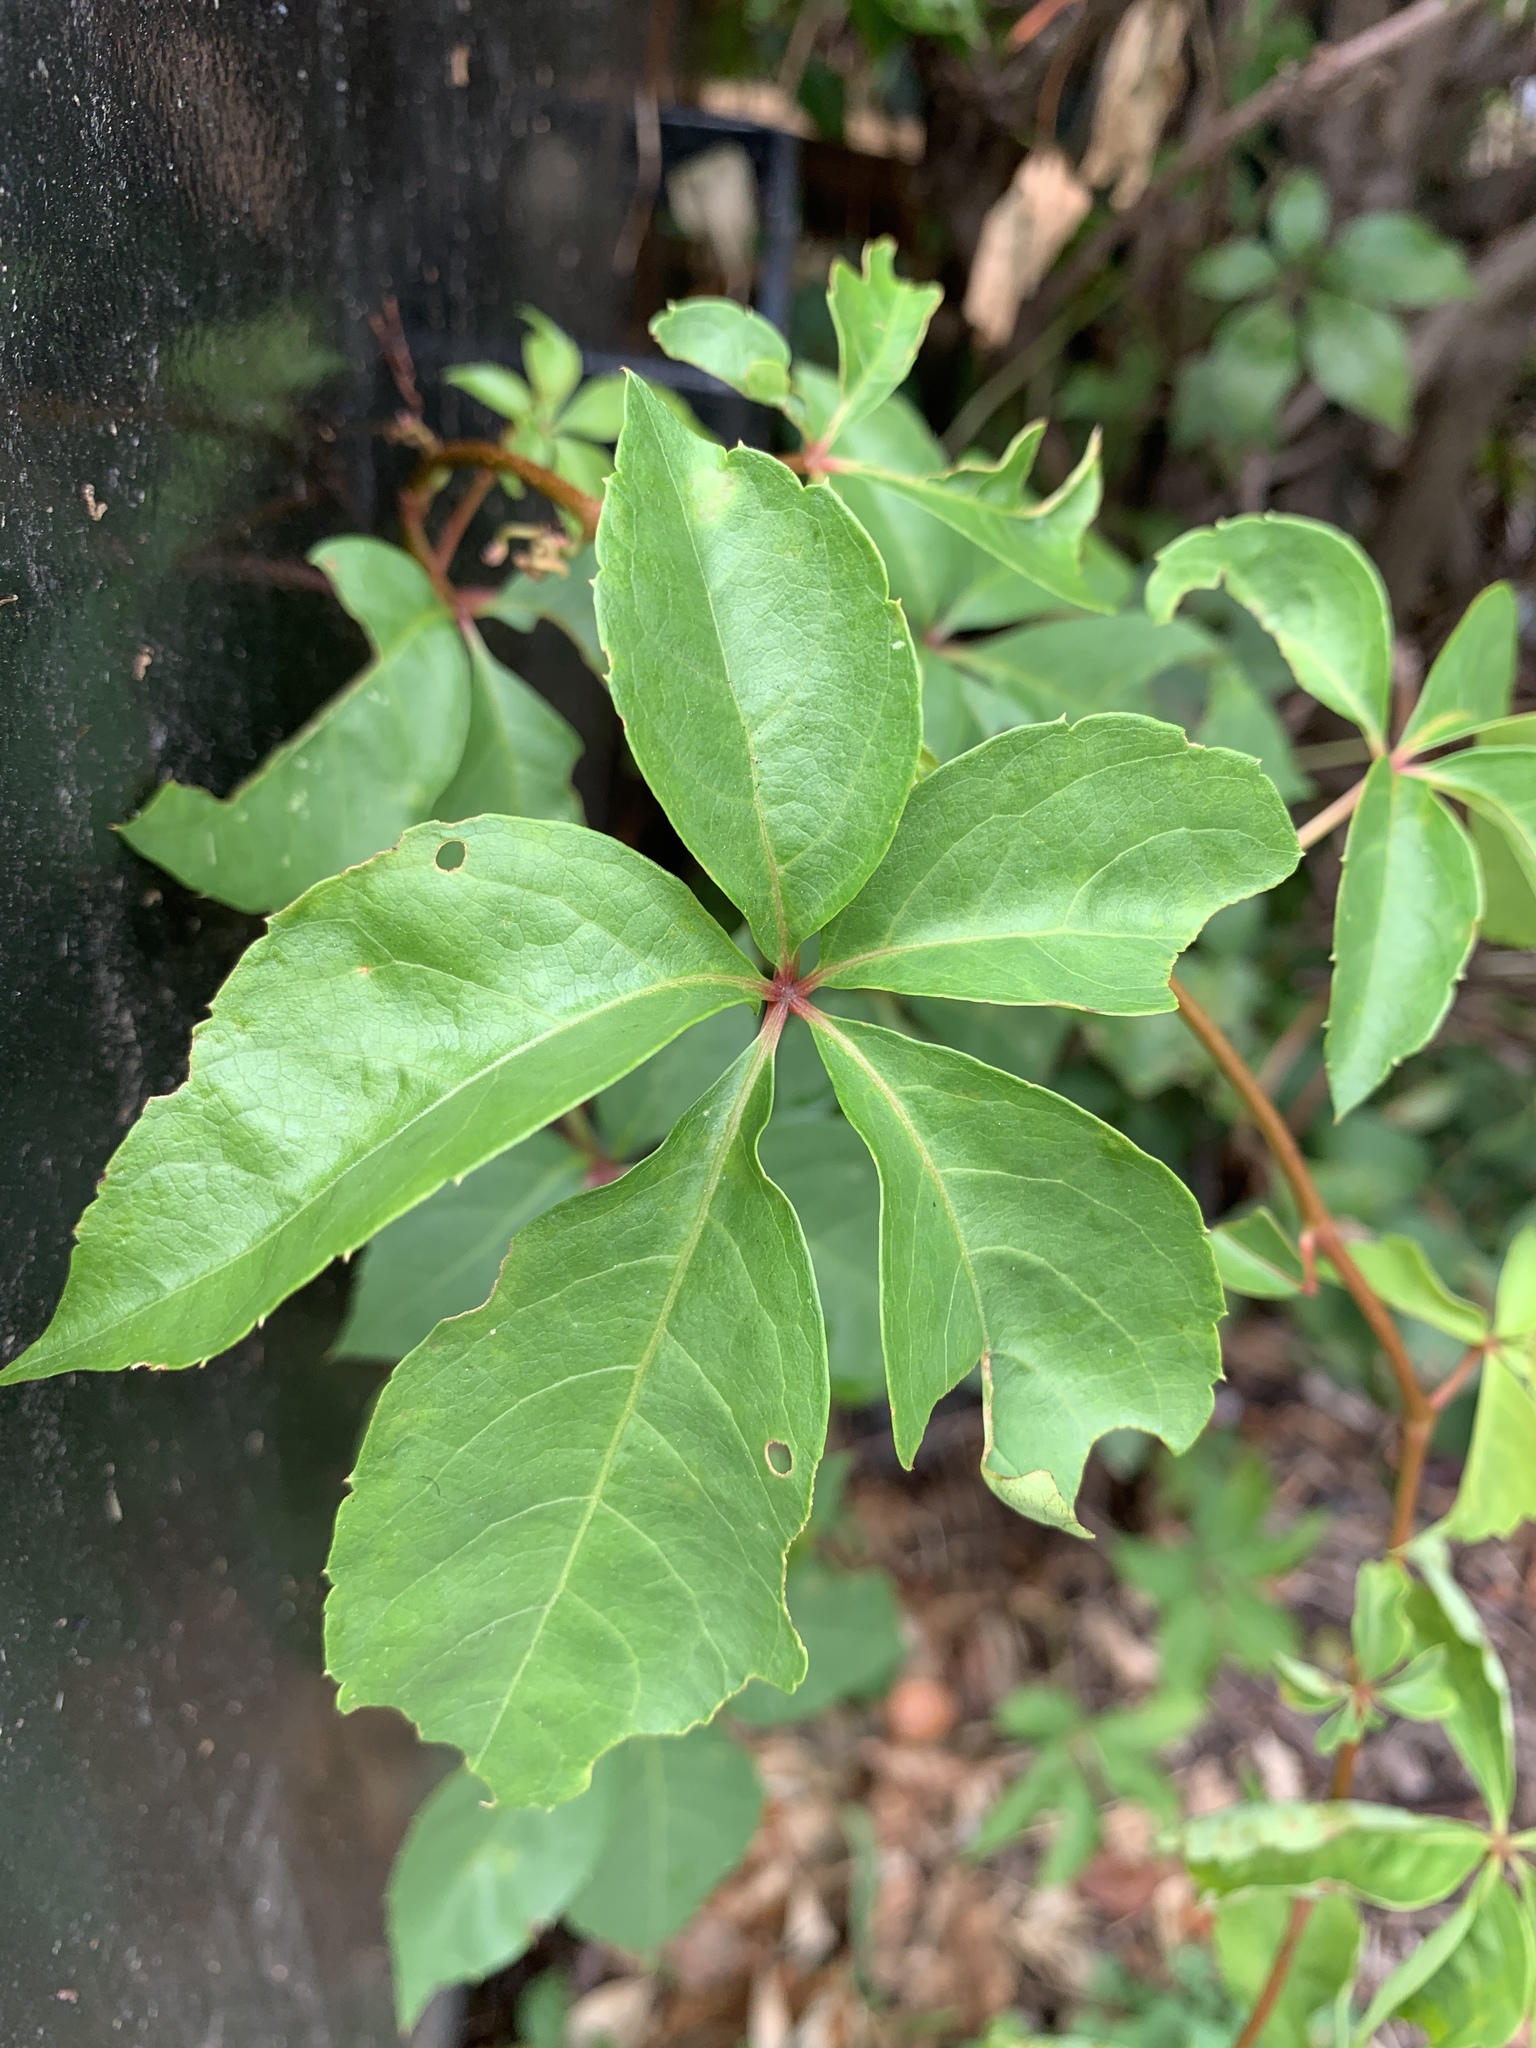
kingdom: Plantae
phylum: Tracheophyta
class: Magnoliopsida
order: Vitales
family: Vitaceae
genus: Parthenocissus
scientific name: Parthenocissus quinquefolia
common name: Virginia-creeper
